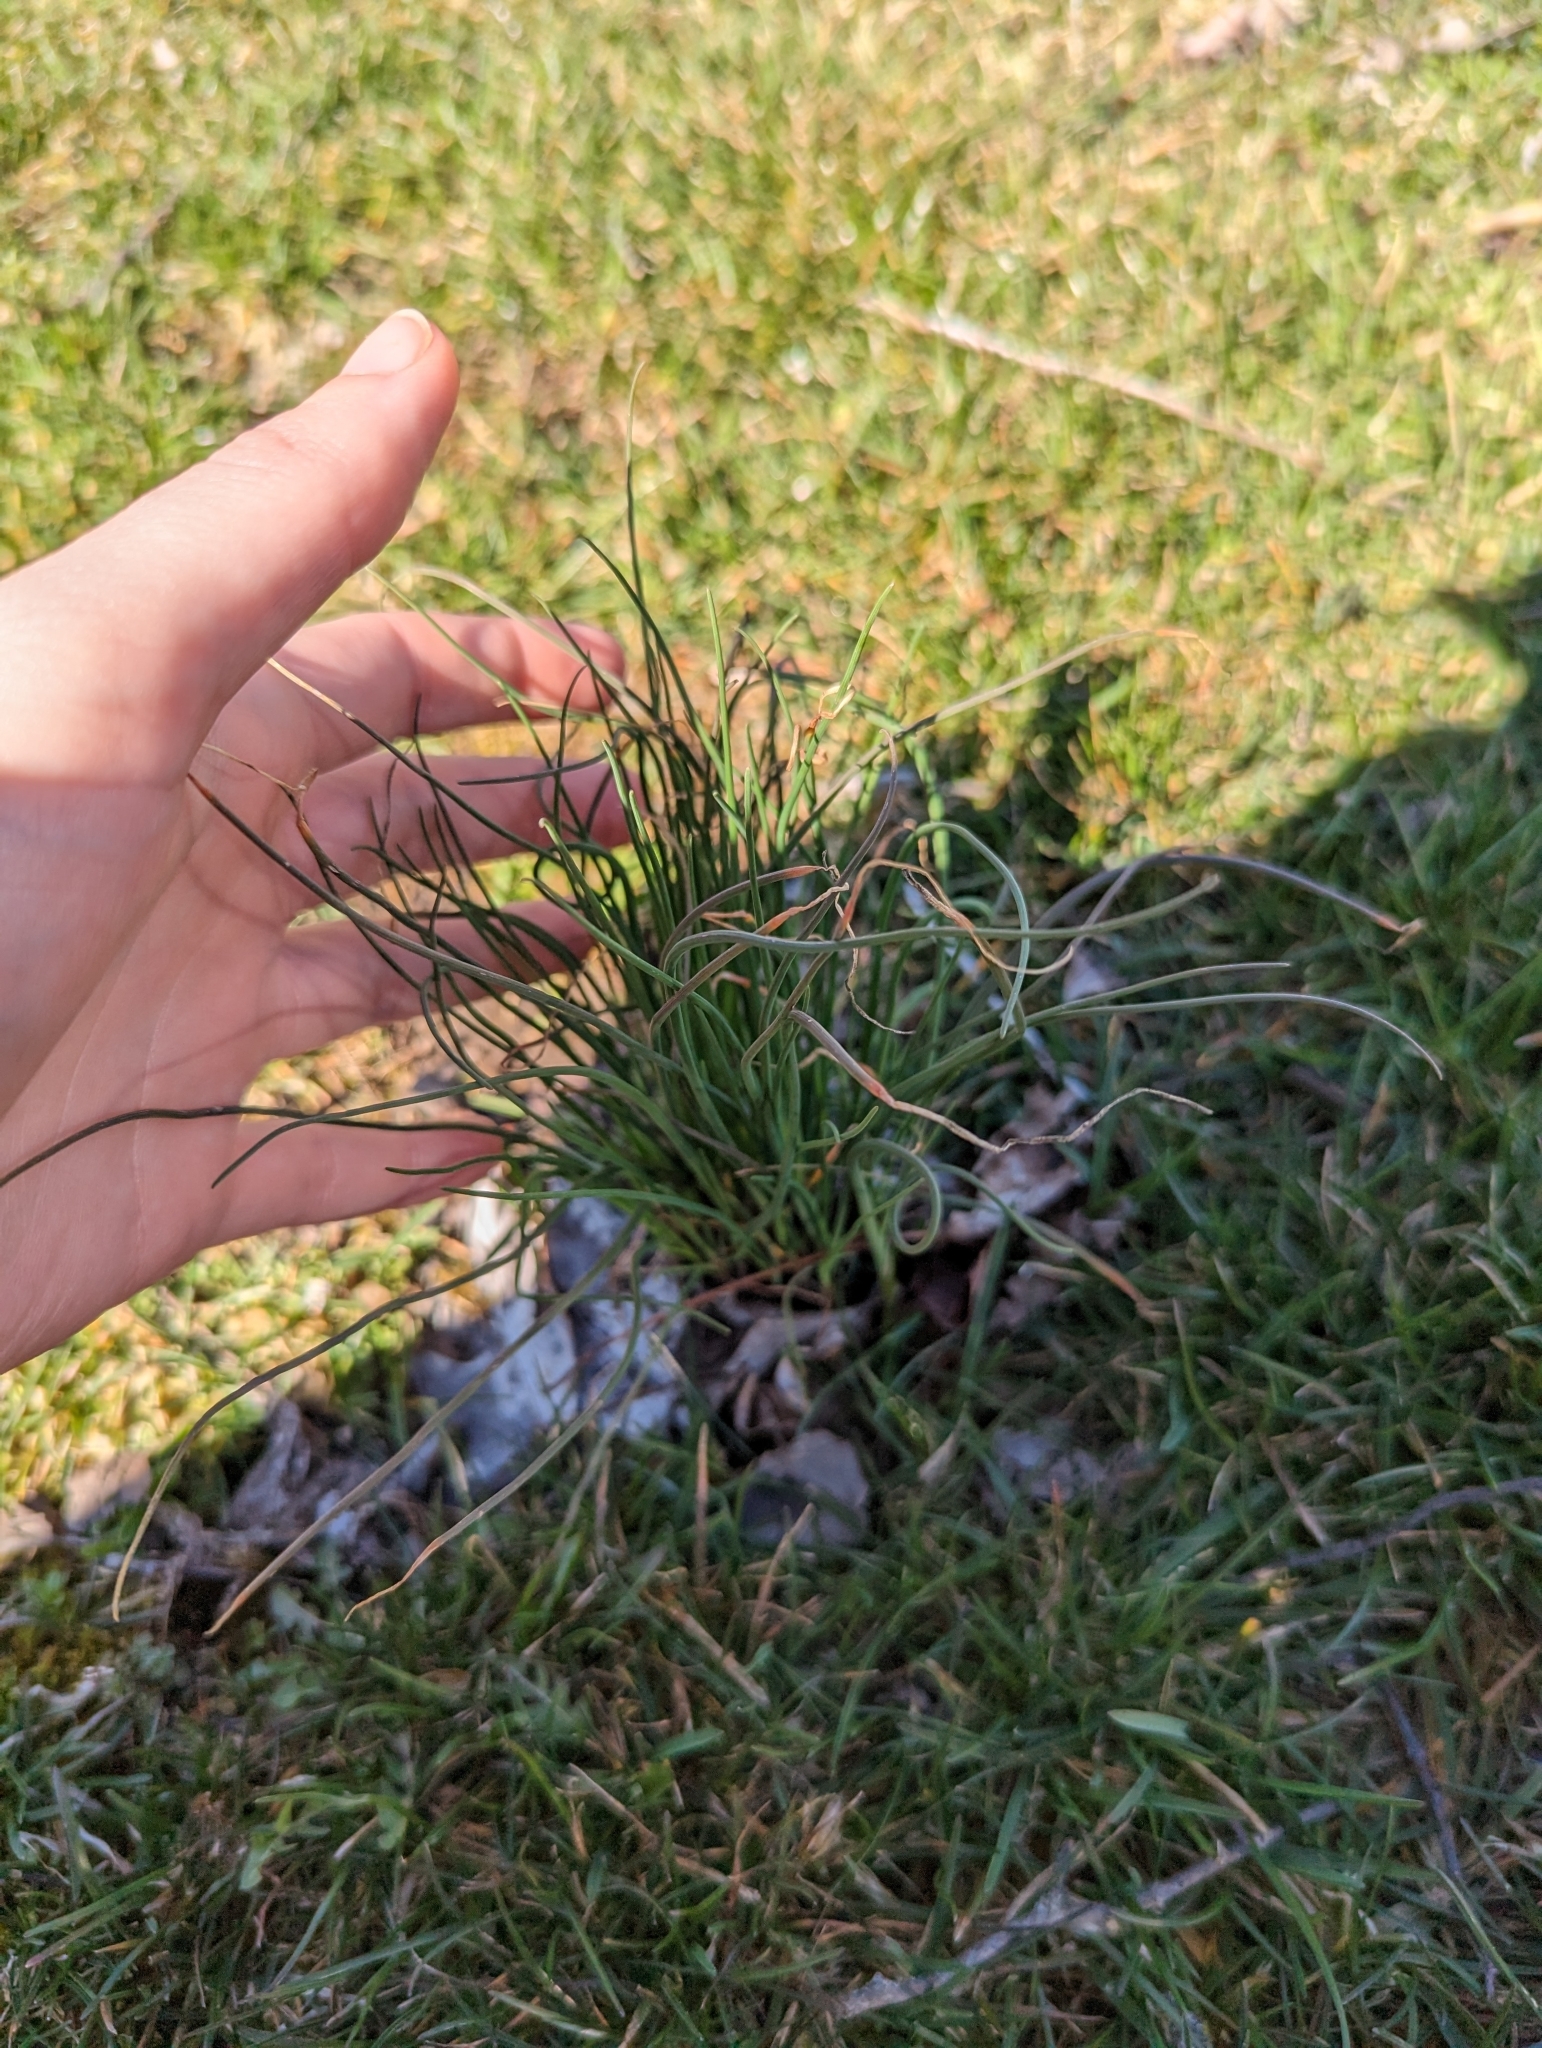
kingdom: Plantae
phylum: Tracheophyta
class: Liliopsida
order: Asparagales
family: Amaryllidaceae
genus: Allium
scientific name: Allium vineale
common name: Crow garlic
